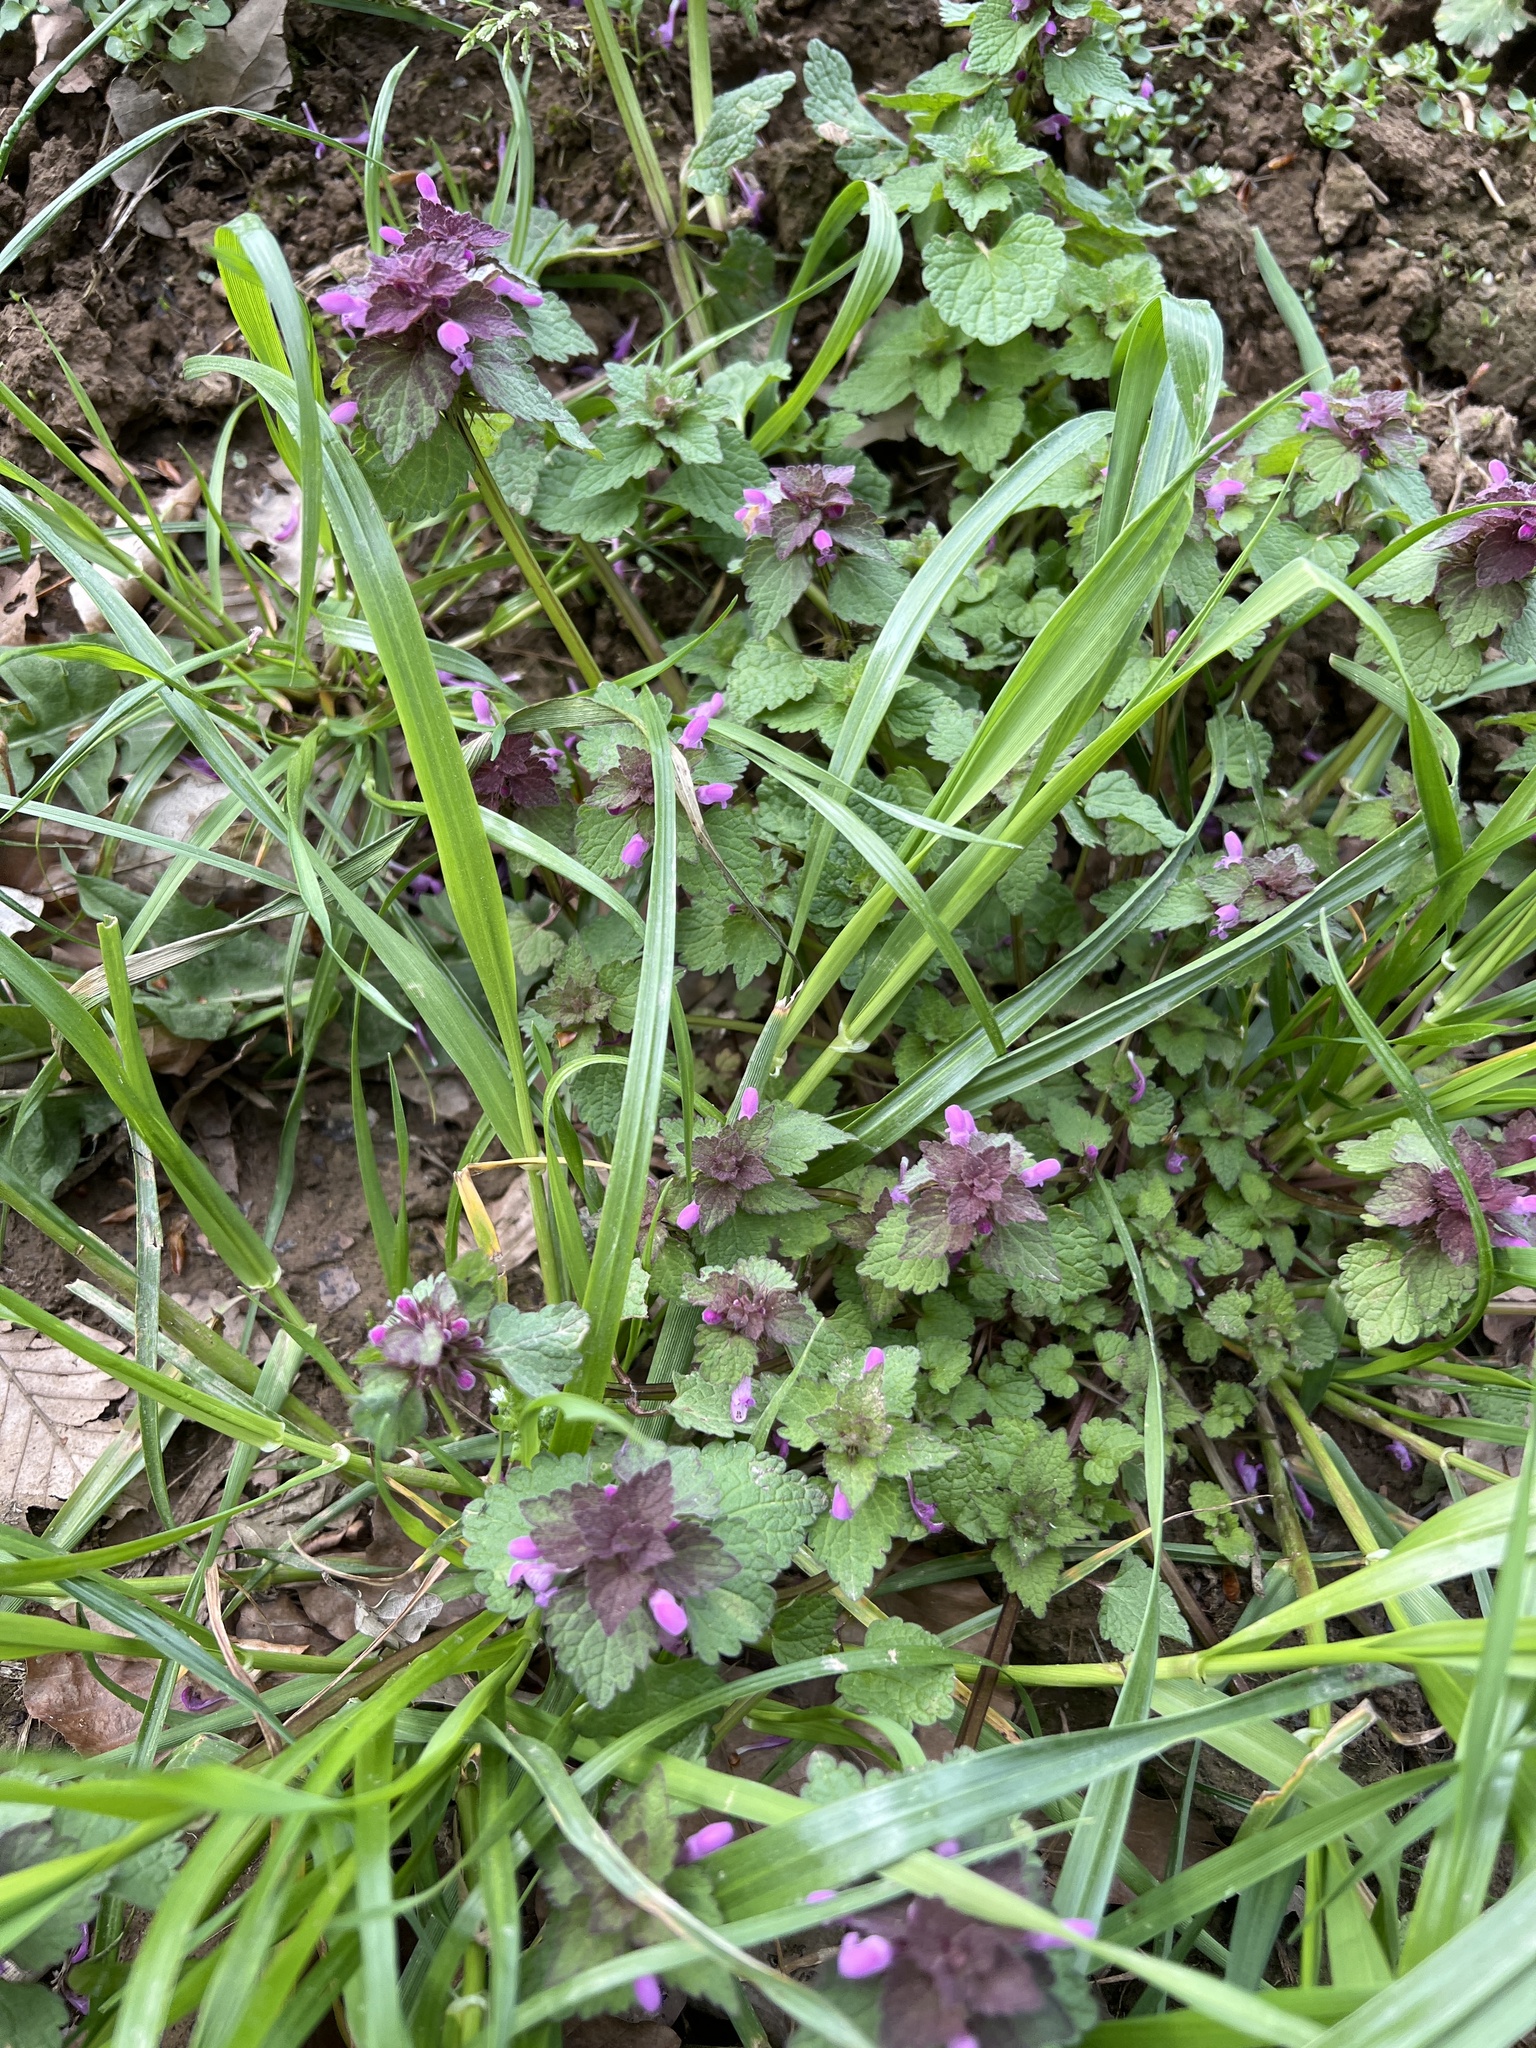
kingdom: Plantae
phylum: Tracheophyta
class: Magnoliopsida
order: Lamiales
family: Lamiaceae
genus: Lamium
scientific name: Lamium purpureum
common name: Red dead-nettle
